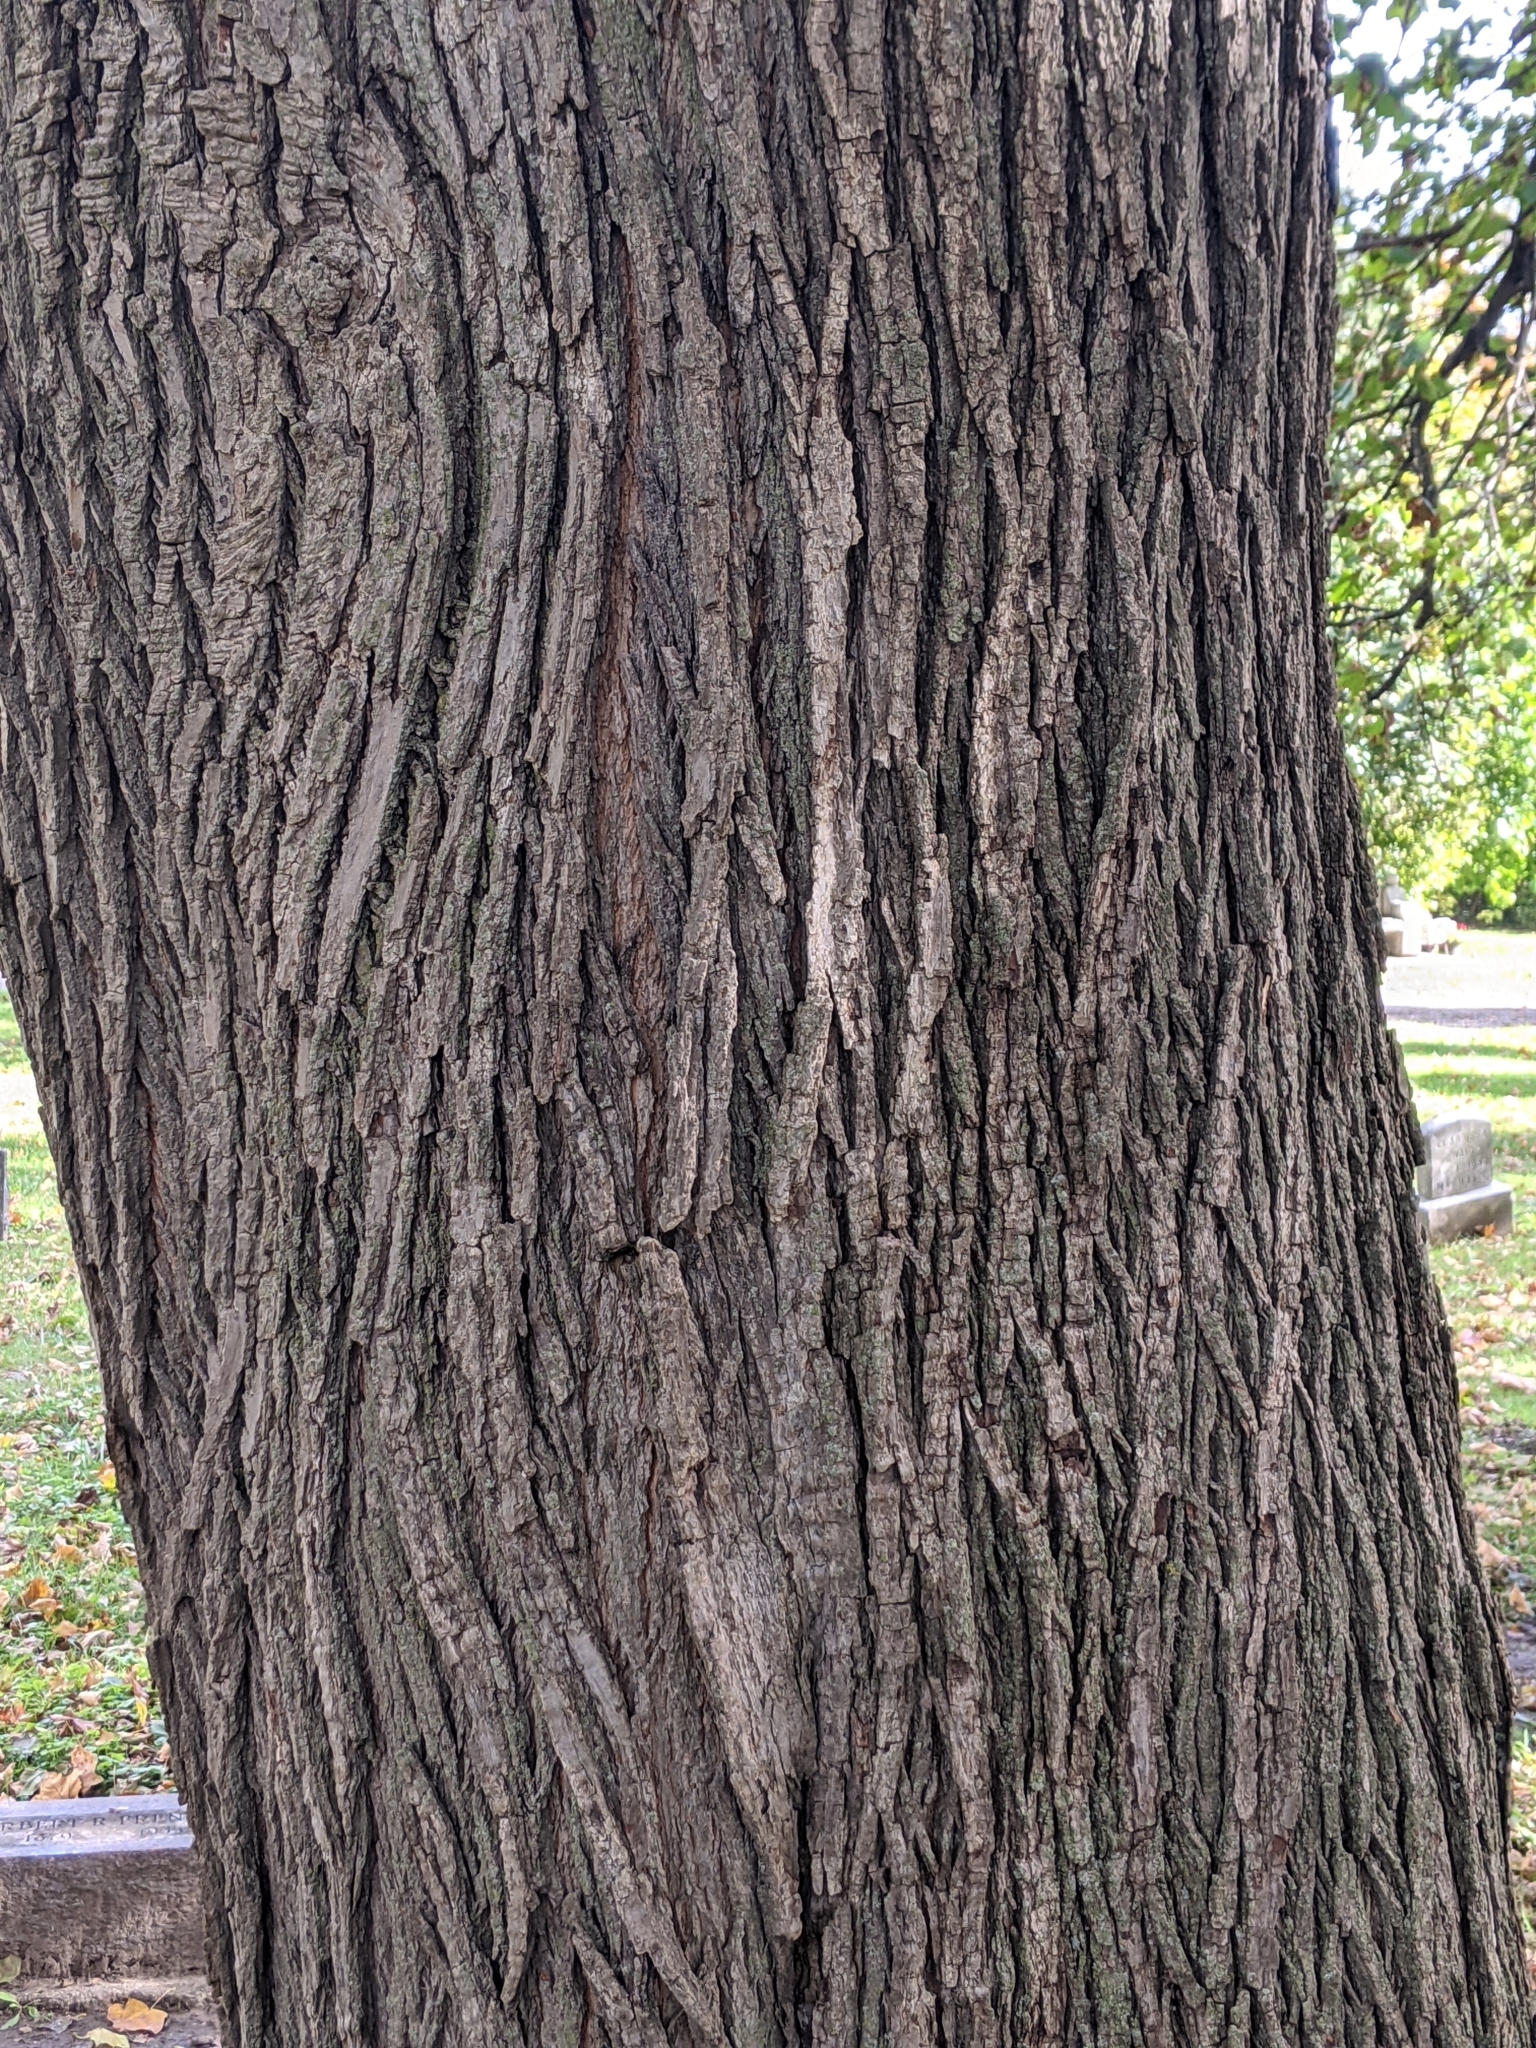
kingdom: Plantae
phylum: Tracheophyta
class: Magnoliopsida
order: Sapindales
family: Sapindaceae
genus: Acer
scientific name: Acer platanoides
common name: Norway maple
